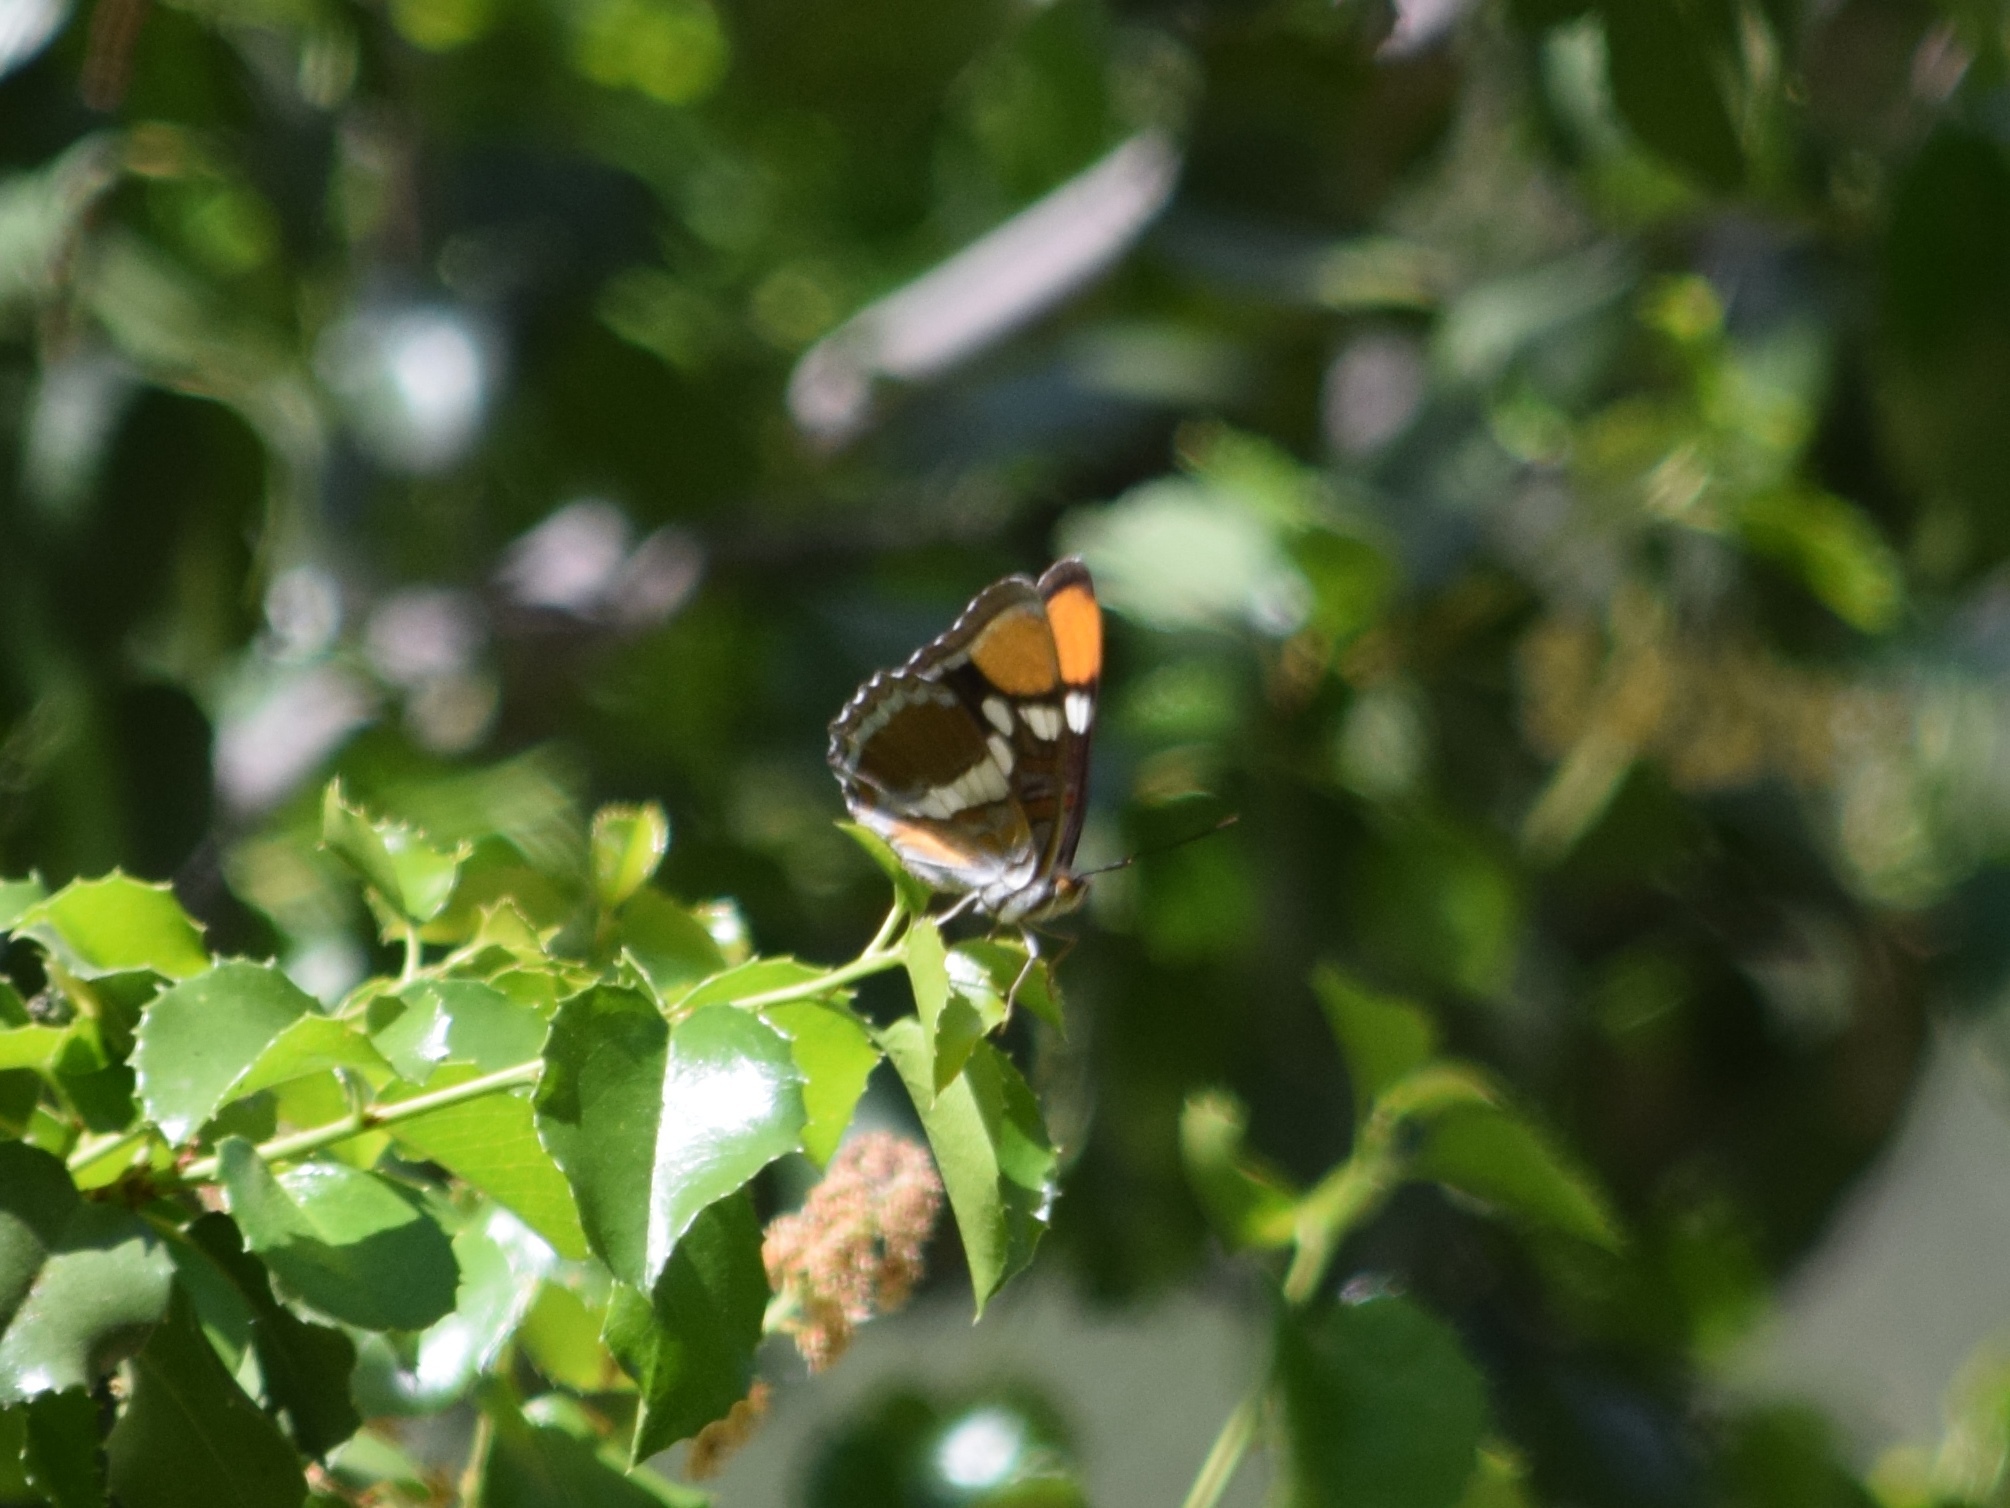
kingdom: Animalia
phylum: Arthropoda
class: Insecta
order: Lepidoptera
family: Nymphalidae
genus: Limenitis
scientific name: Limenitis bredowii
